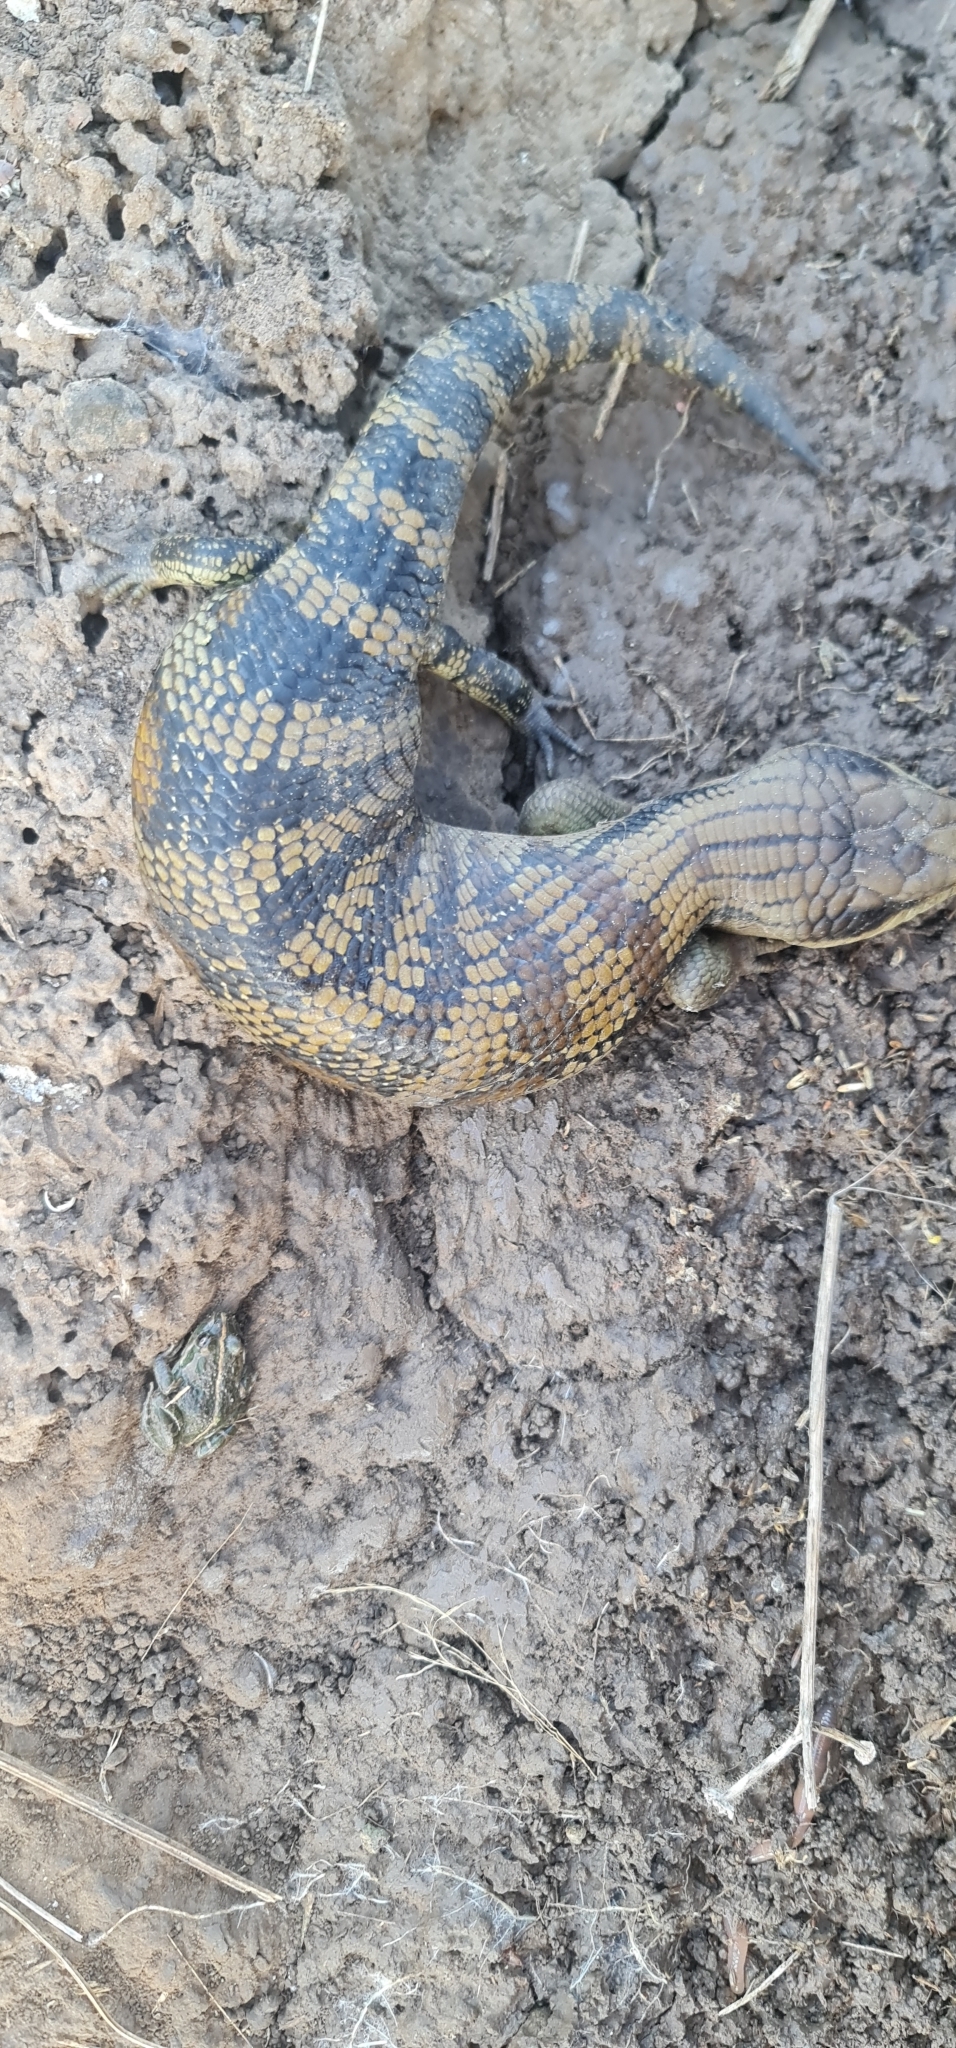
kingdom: Animalia
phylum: Chordata
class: Squamata
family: Scincidae
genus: Tiliqua
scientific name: Tiliqua scincoides
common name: Common bluetongue
